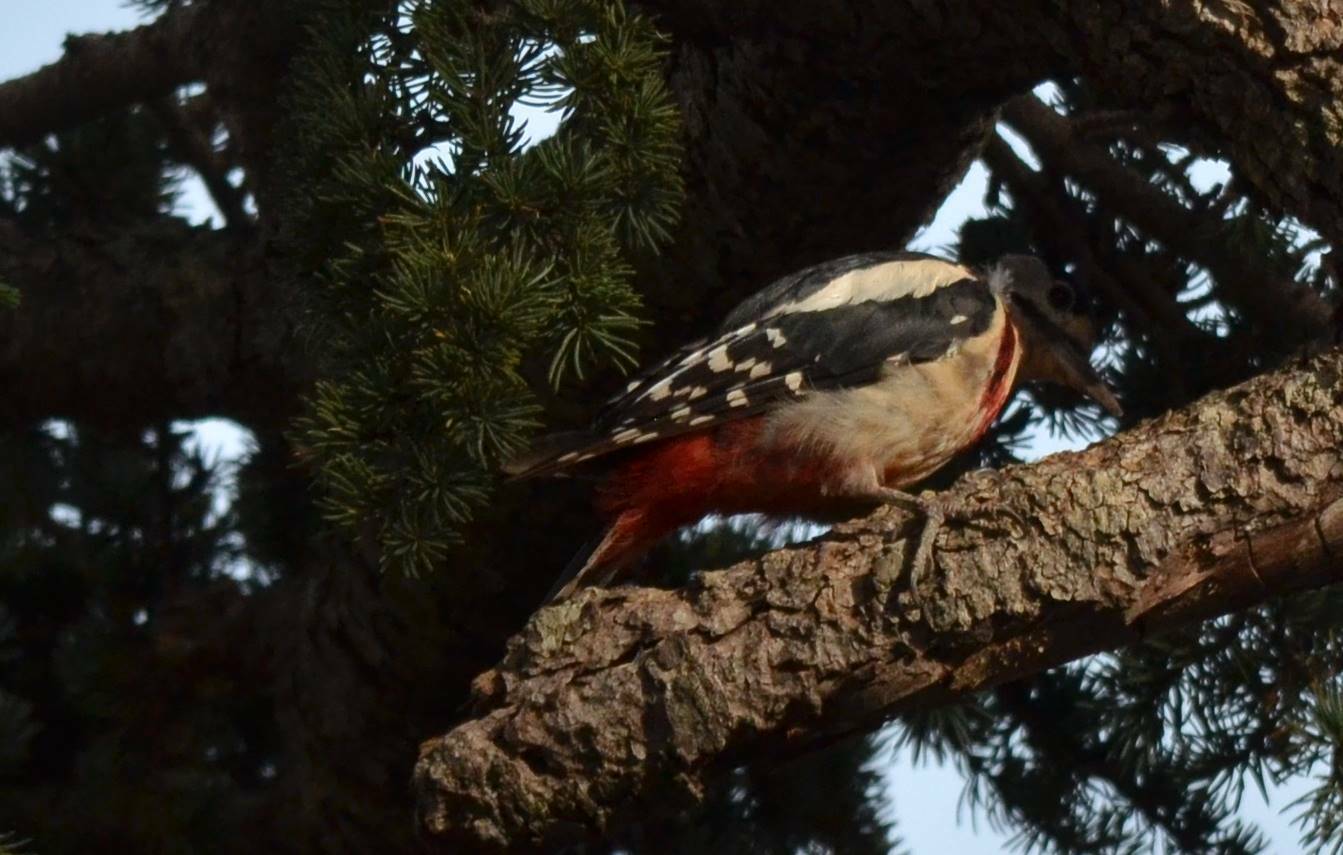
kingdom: Animalia
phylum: Chordata
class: Aves
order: Piciformes
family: Picidae
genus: Dendrocopos
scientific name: Dendrocopos major
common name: Great spotted woodpecker
